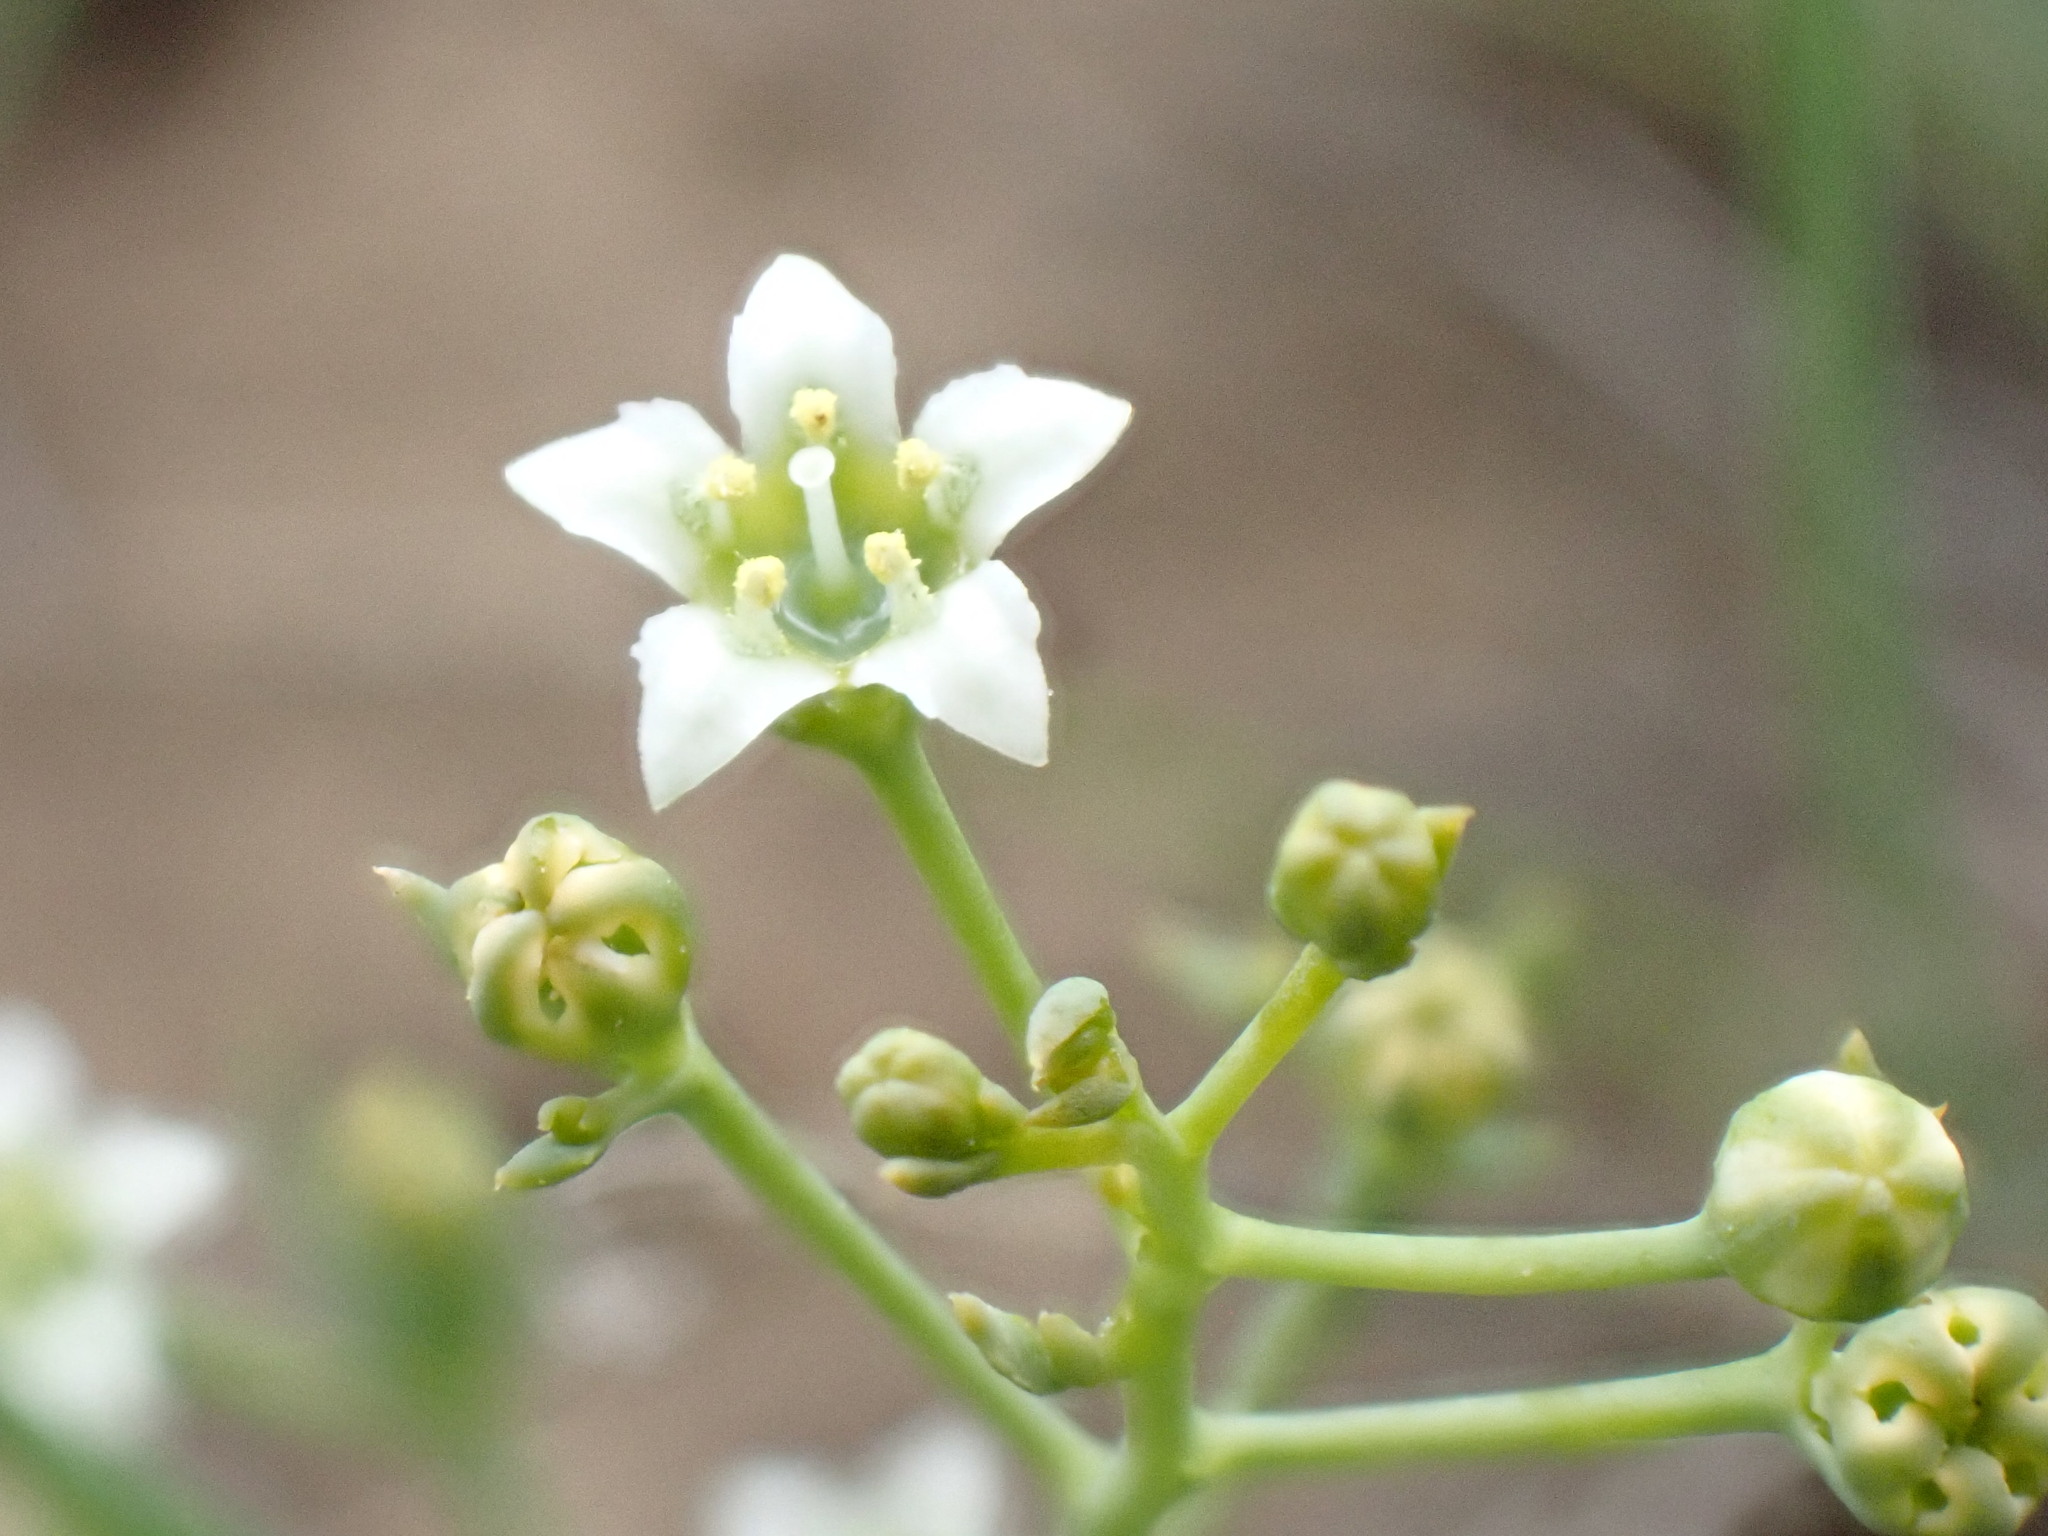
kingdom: Plantae
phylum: Tracheophyta
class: Magnoliopsida
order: Santalales
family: Thesiaceae
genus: Thesium
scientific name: Thesium divaricatum
